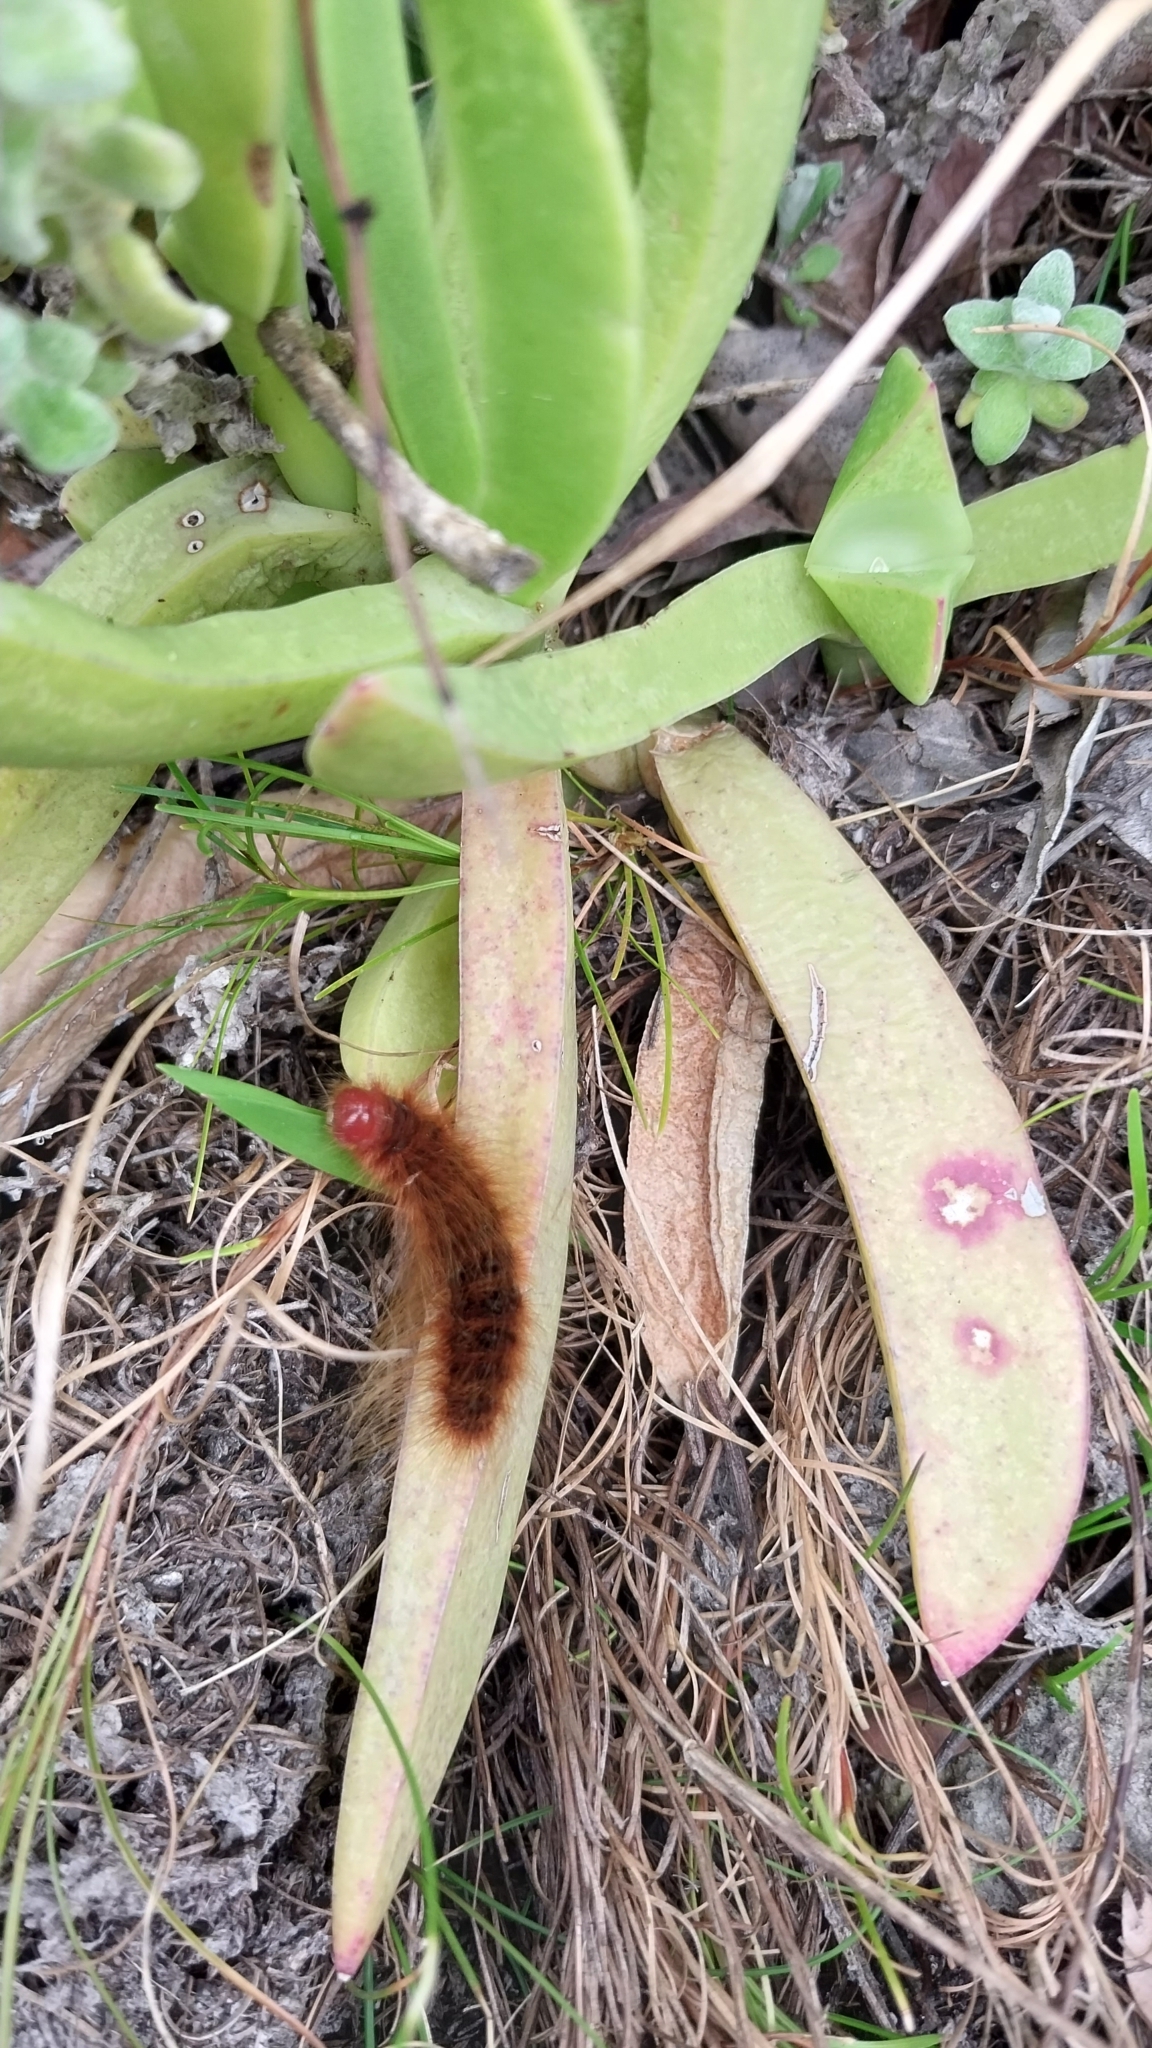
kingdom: Animalia
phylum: Arthropoda
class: Insecta
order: Lepidoptera
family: Eupterotidae
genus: Phyllalia
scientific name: Phyllalia patens
